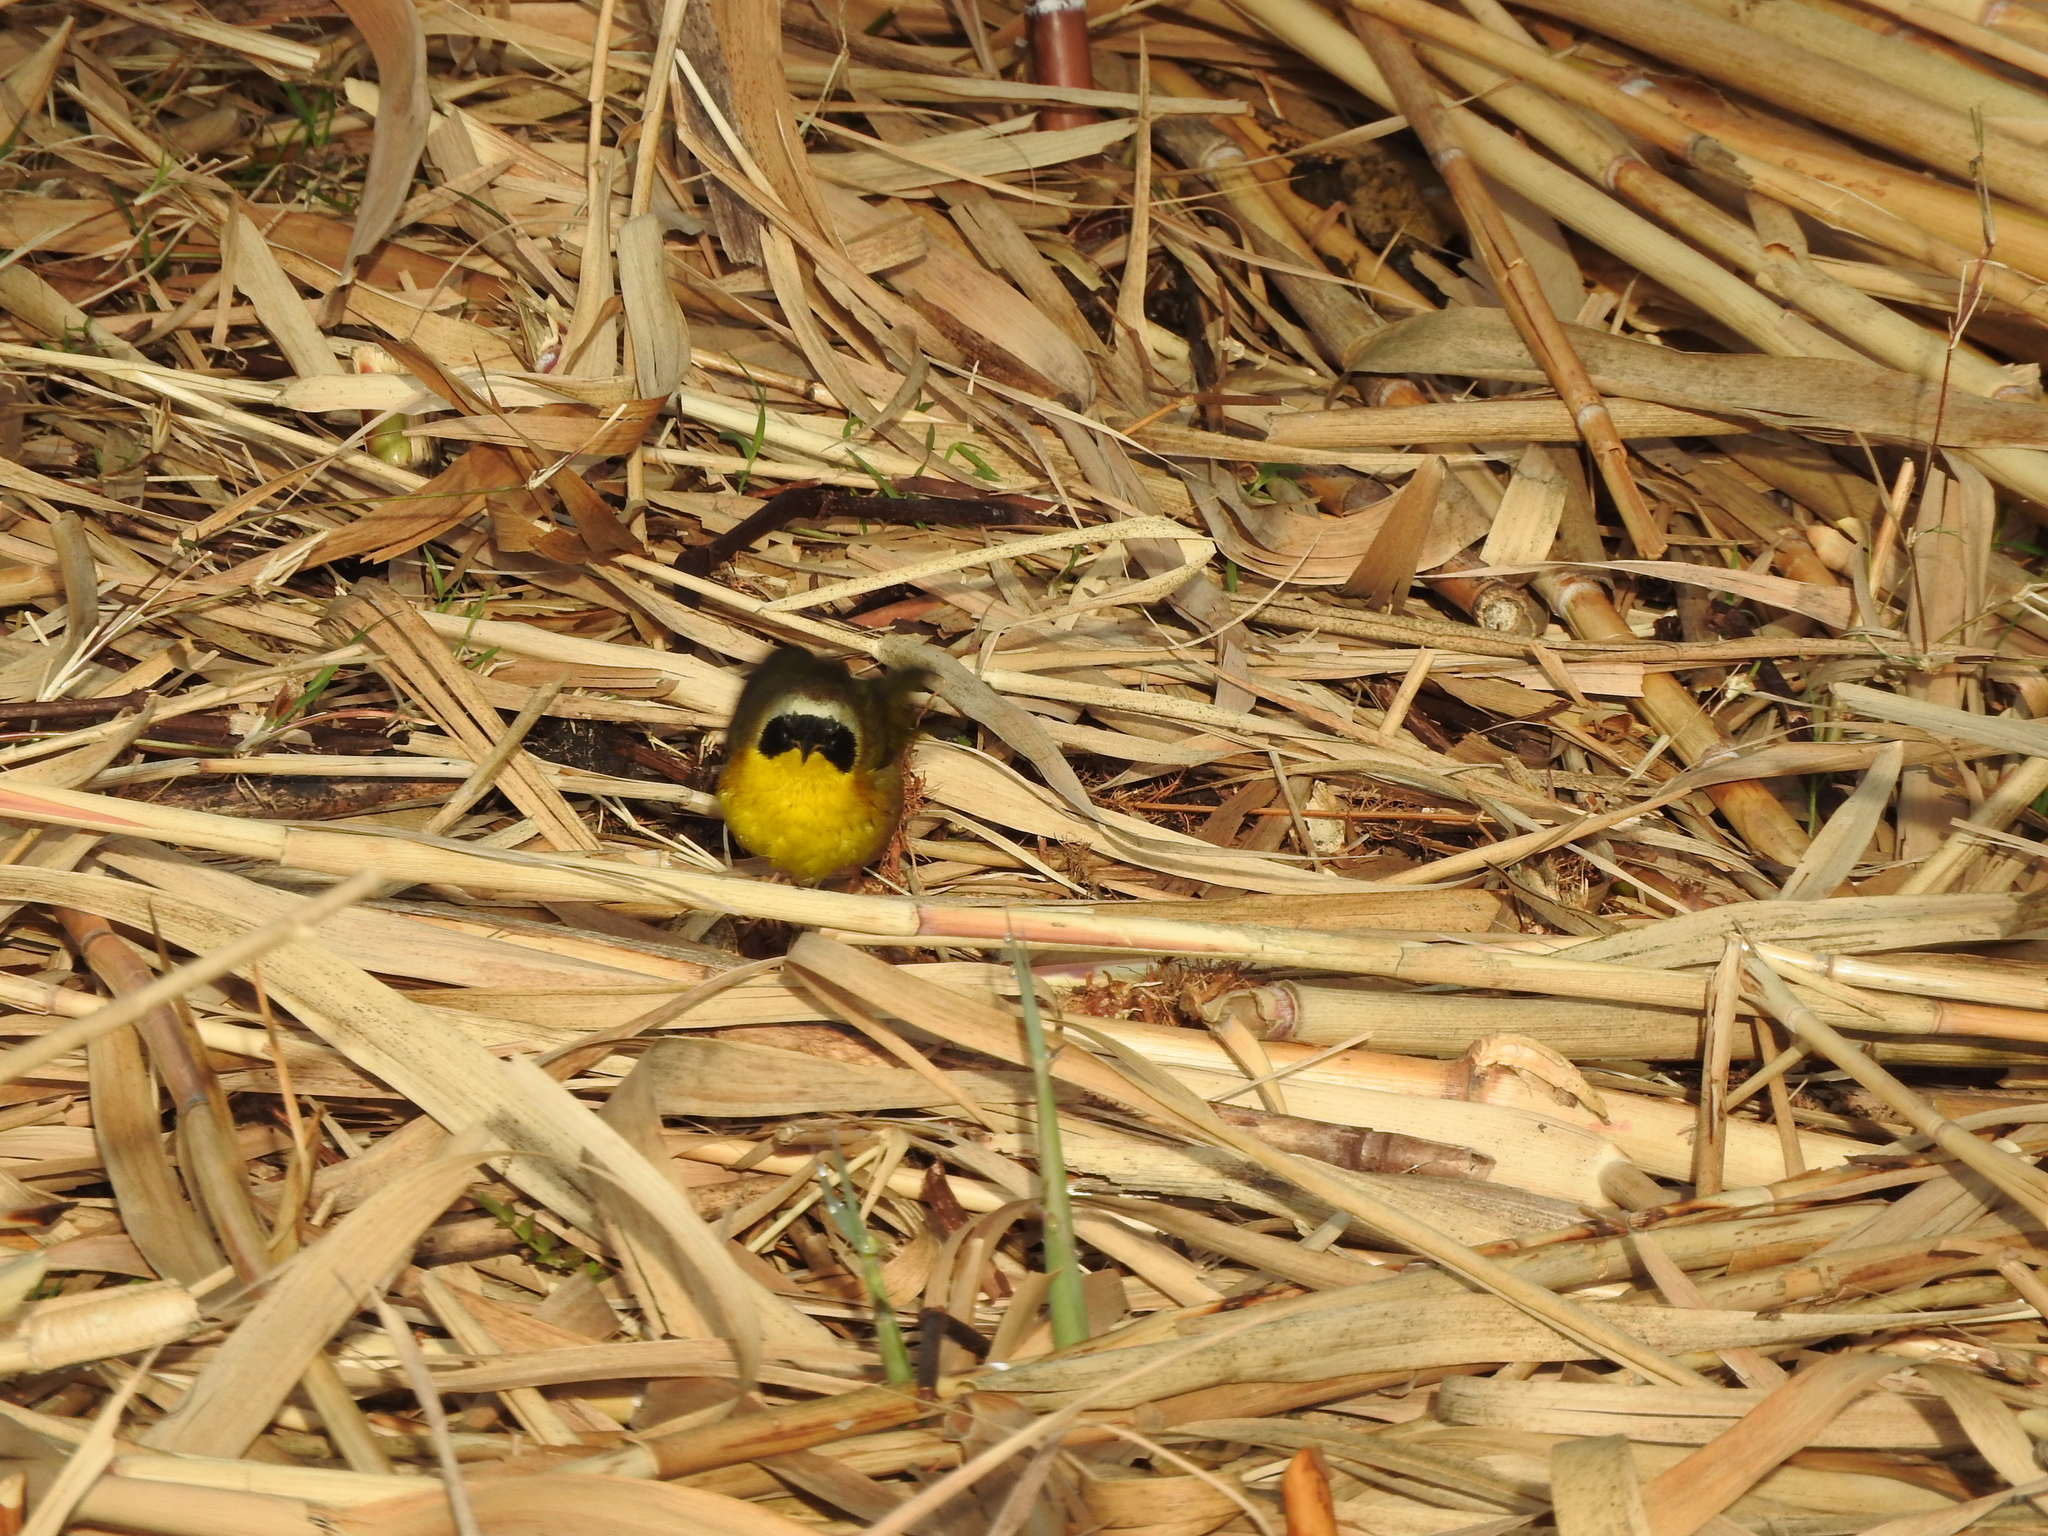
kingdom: Animalia
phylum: Chordata
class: Aves
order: Passeriformes
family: Parulidae
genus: Geothlypis
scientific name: Geothlypis trichas
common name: Common yellowthroat
